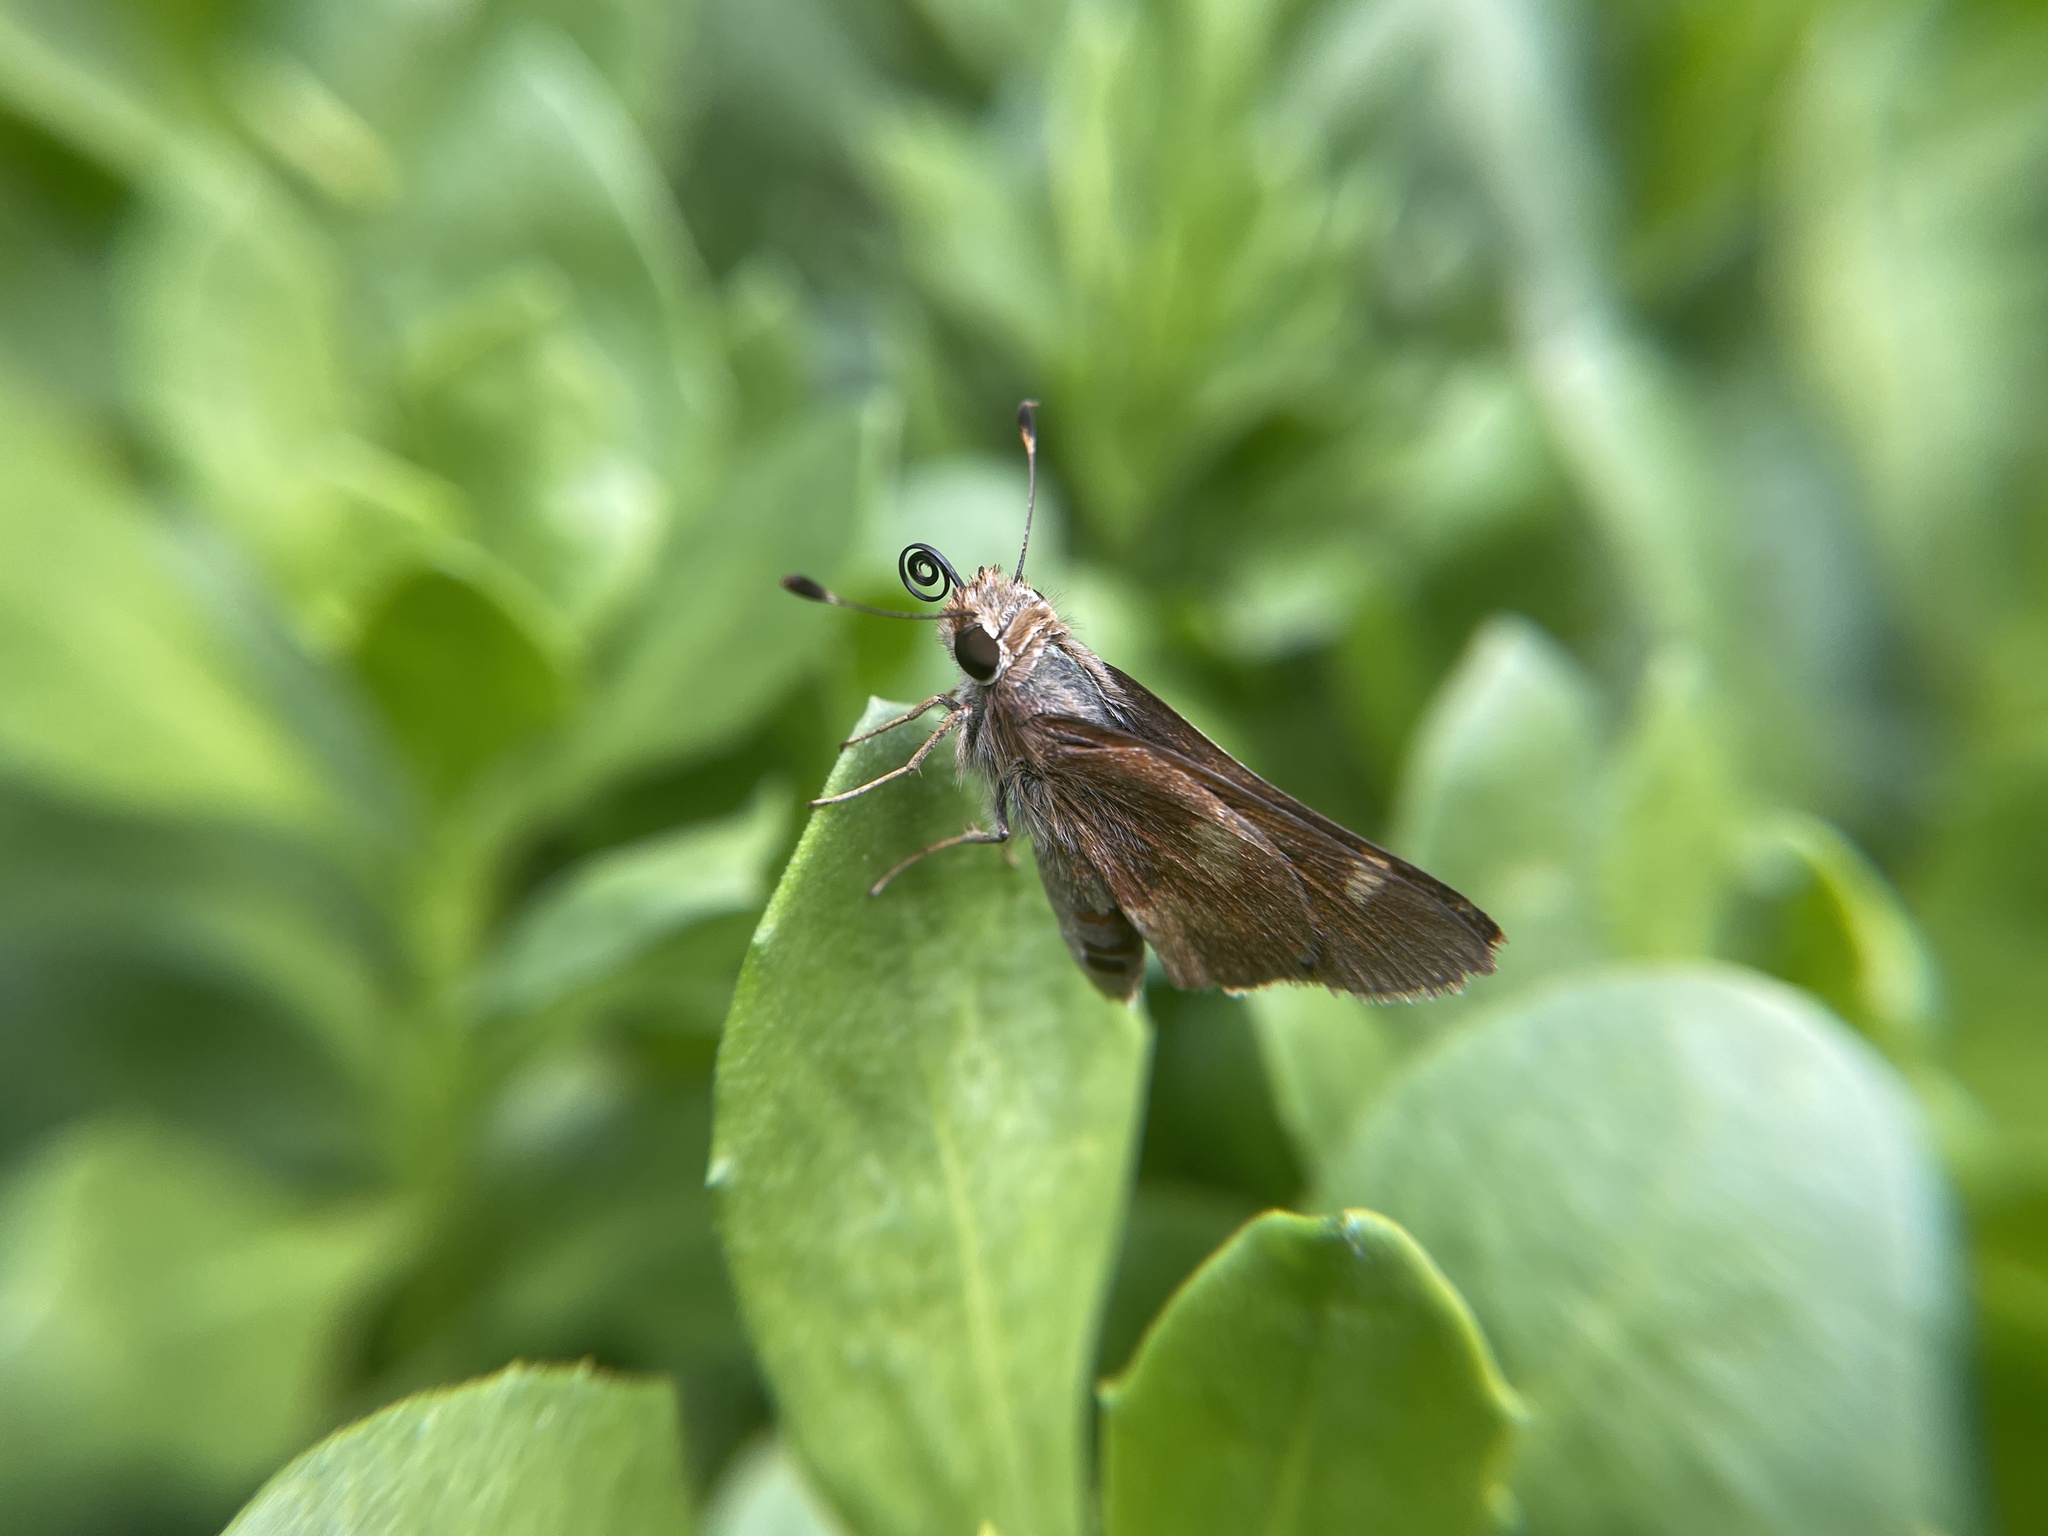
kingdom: Animalia
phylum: Arthropoda
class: Insecta
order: Lepidoptera
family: Hesperiidae
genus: Lon
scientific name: Lon melane
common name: Umber skipper
